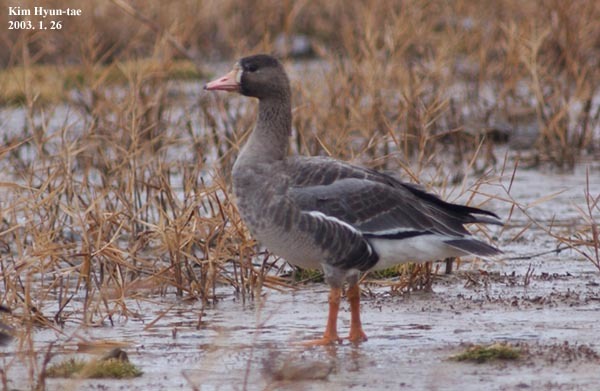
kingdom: Animalia
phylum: Chordata
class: Aves
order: Anseriformes
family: Anatidae
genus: Anser
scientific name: Anser albifrons
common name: Greater white-fronted goose
